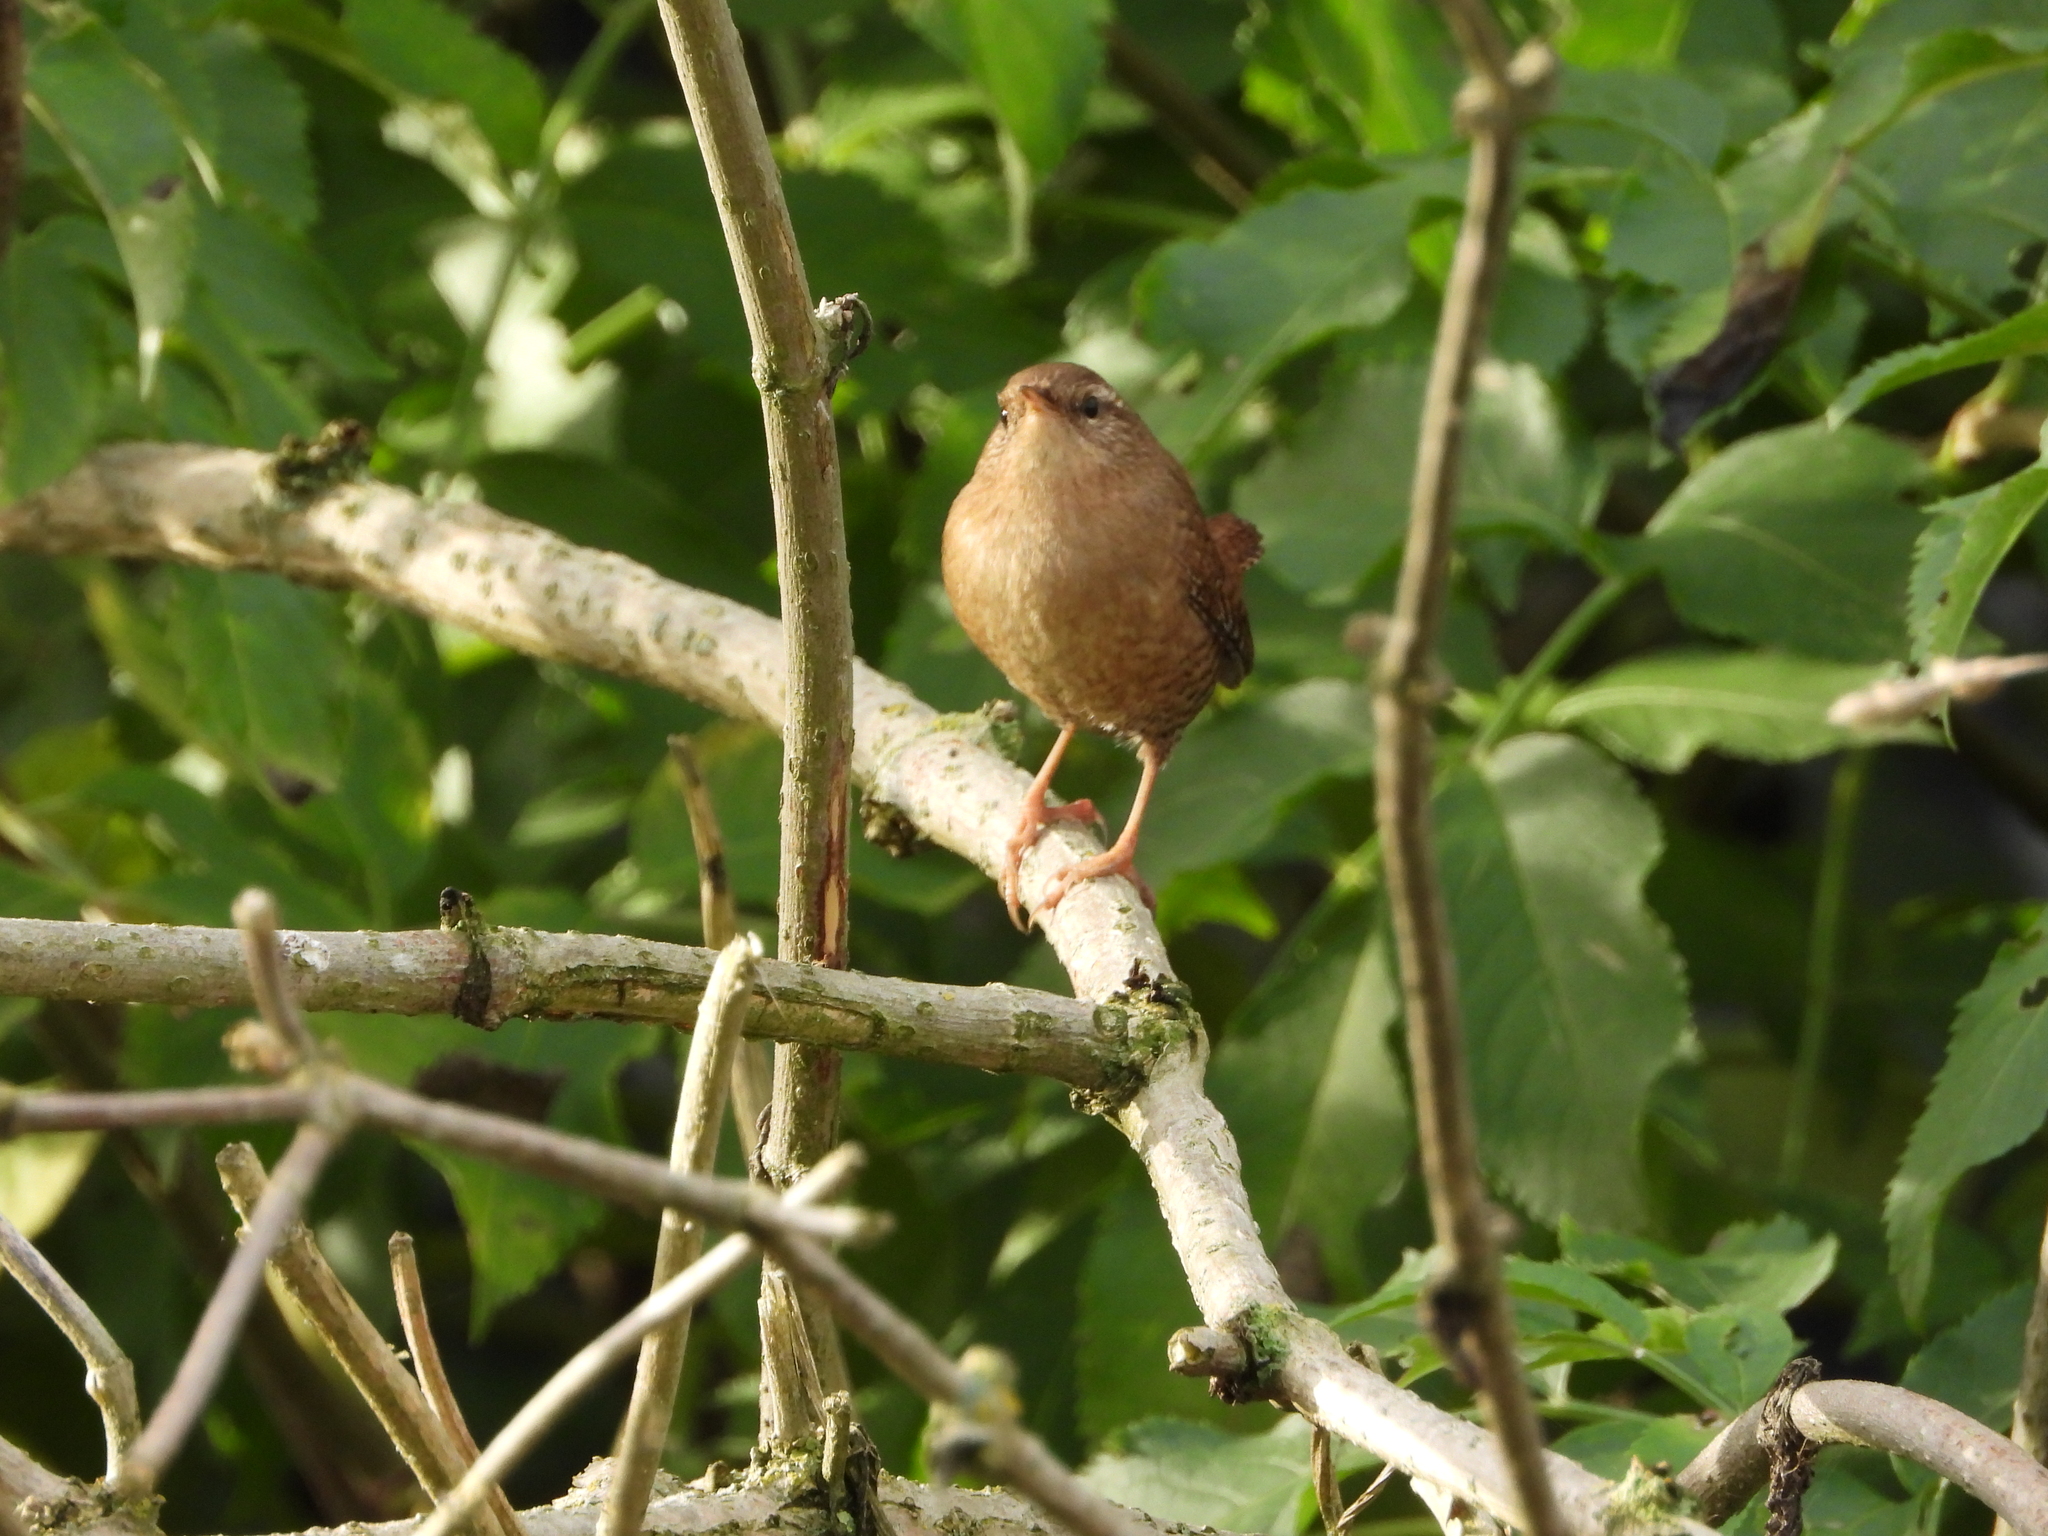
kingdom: Animalia
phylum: Chordata
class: Aves
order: Passeriformes
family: Troglodytidae
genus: Troglodytes
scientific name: Troglodytes troglodytes
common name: Eurasian wren
